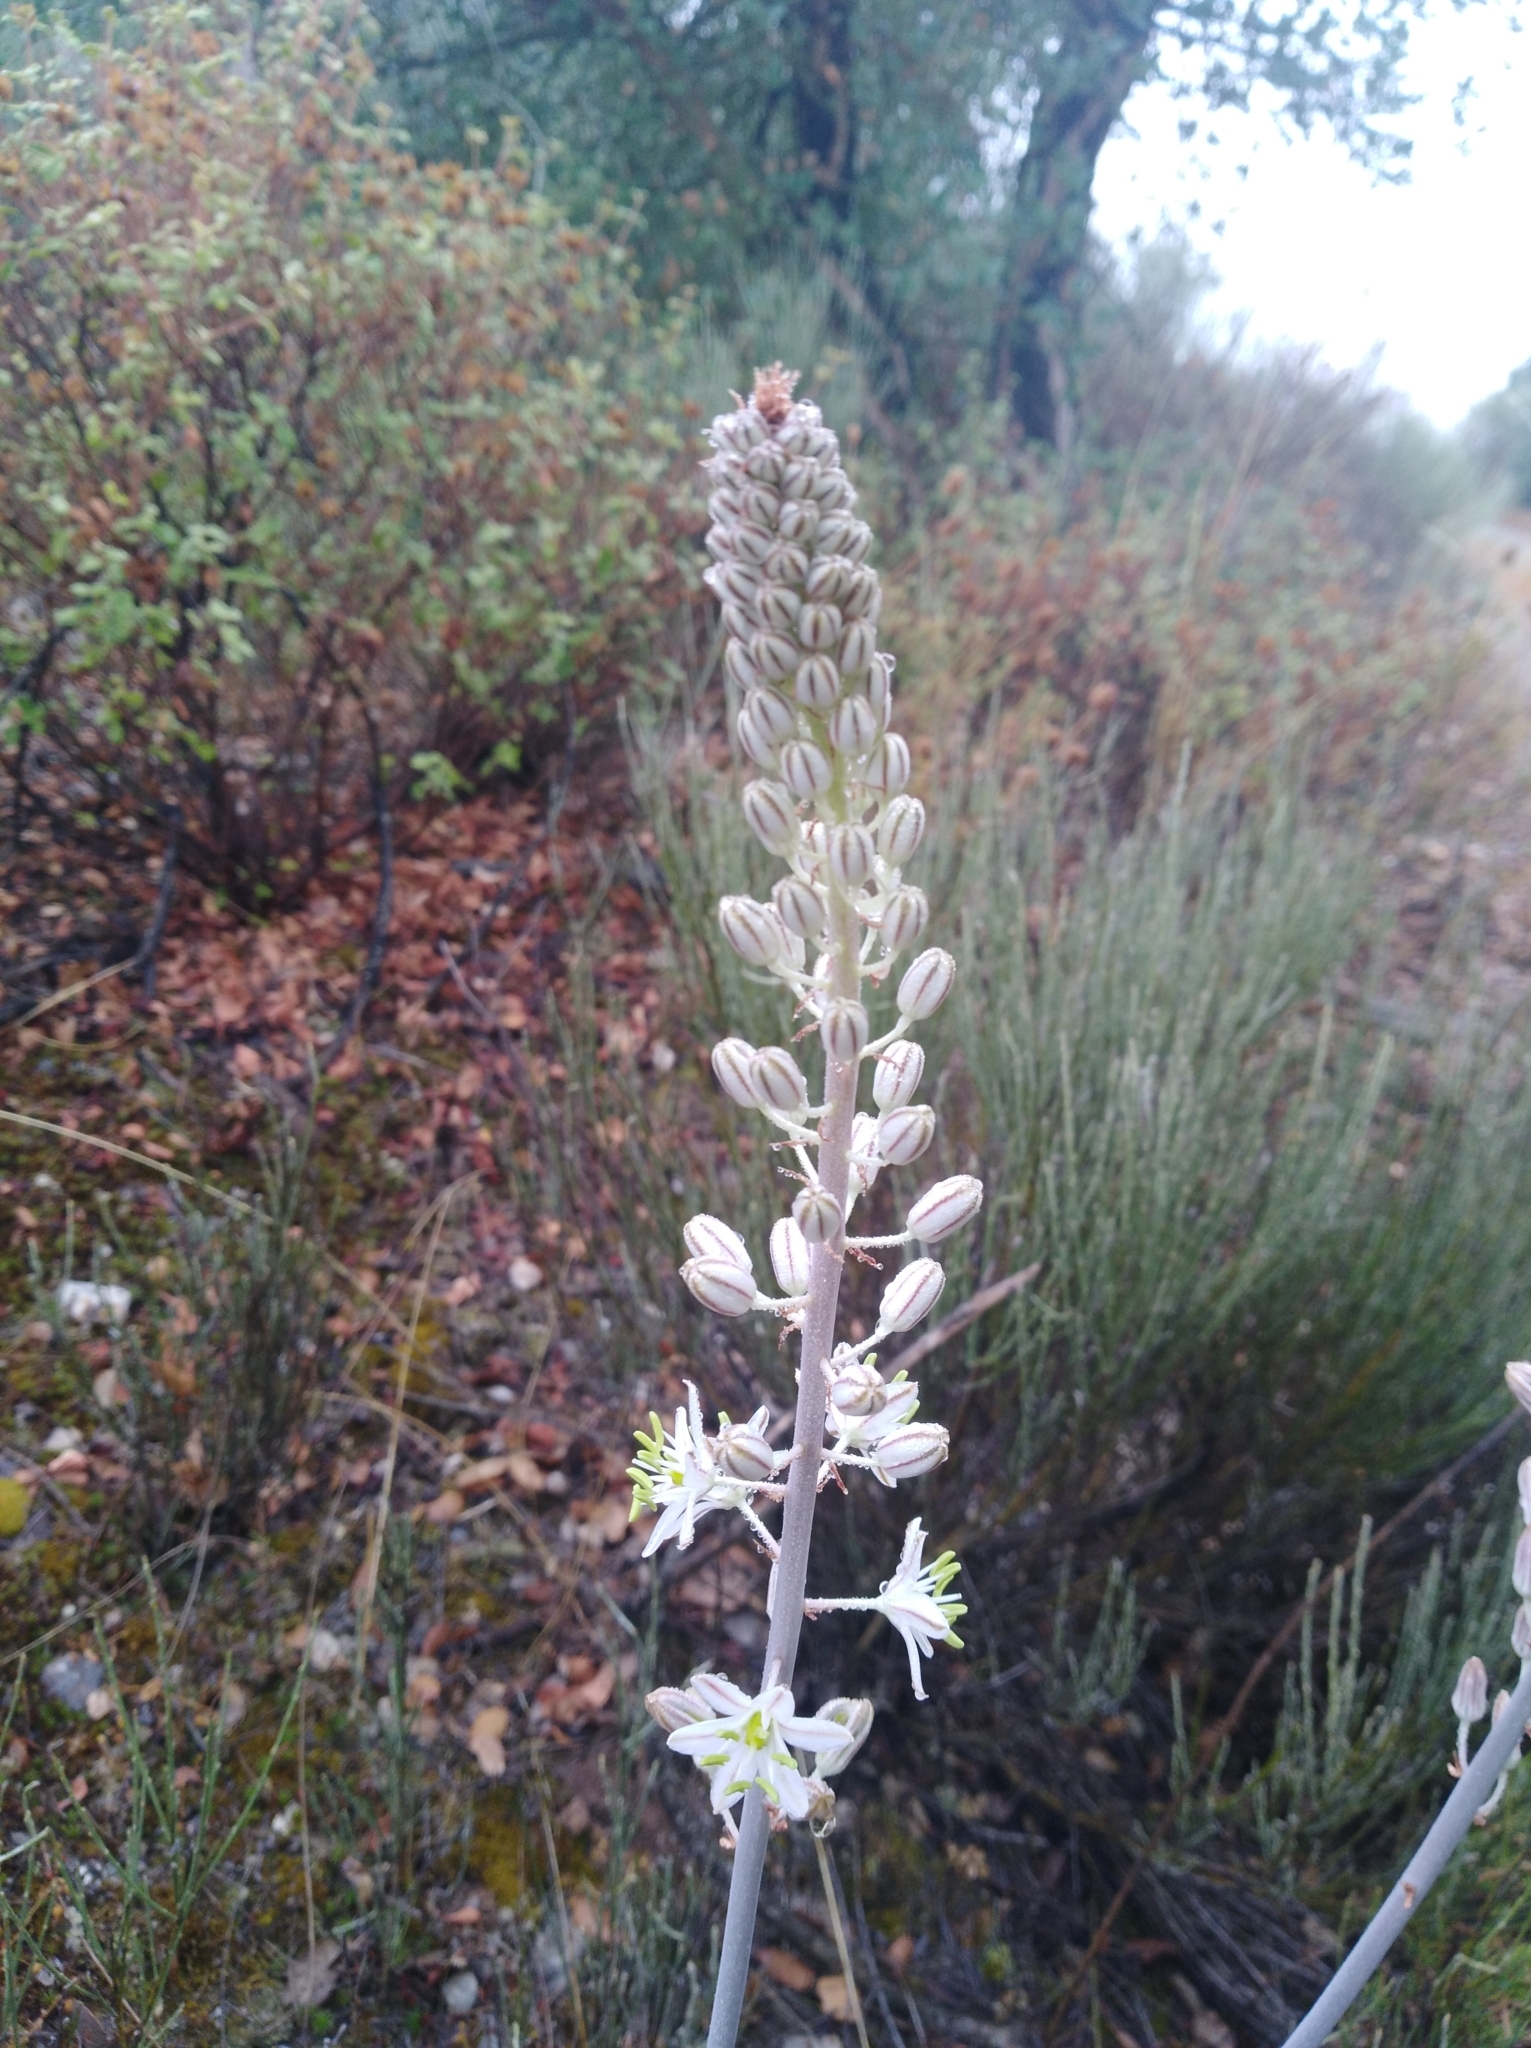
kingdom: Plantae
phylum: Tracheophyta
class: Liliopsida
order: Asparagales
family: Asparagaceae
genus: Drimia
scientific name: Drimia maritima
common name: Maritime squill
